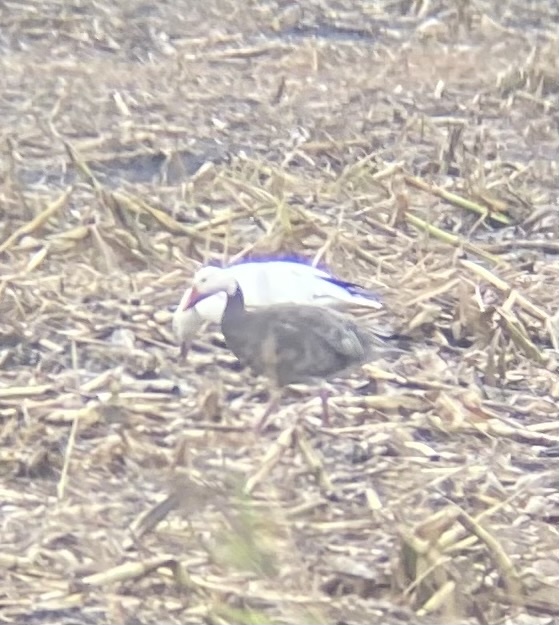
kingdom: Animalia
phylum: Chordata
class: Aves
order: Anseriformes
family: Anatidae
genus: Anser
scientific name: Anser caerulescens
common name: Snow goose
